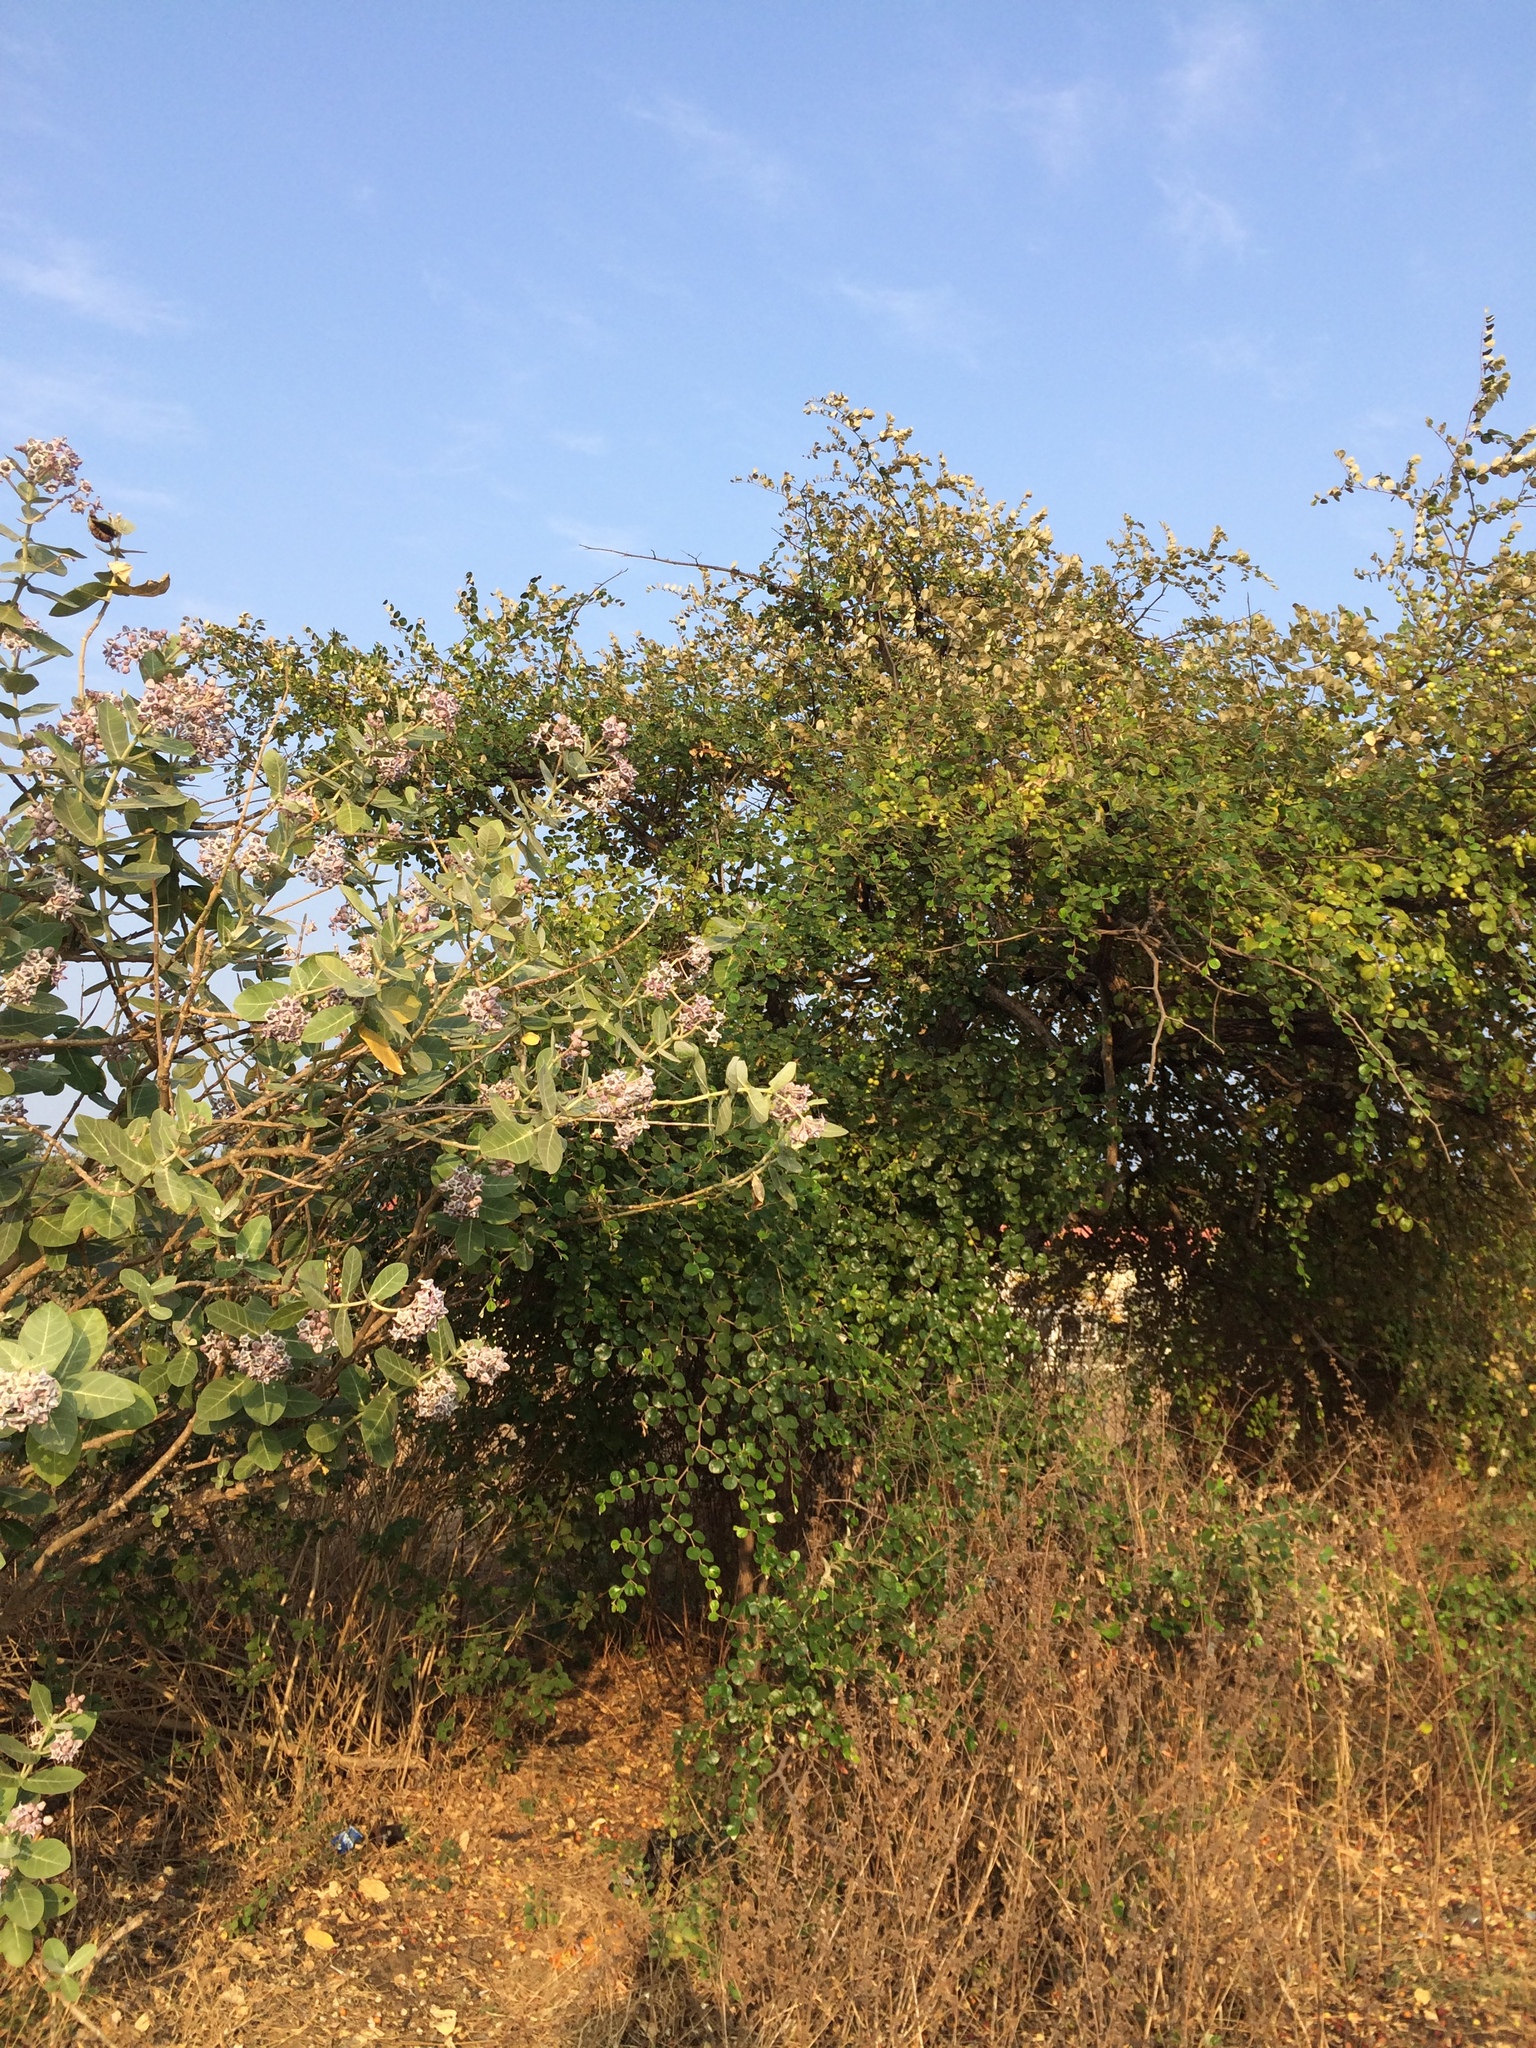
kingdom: Plantae
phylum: Tracheophyta
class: Magnoliopsida
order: Gentianales
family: Apocynaceae
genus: Calotropis
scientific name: Calotropis gigantea
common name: Crown flower
